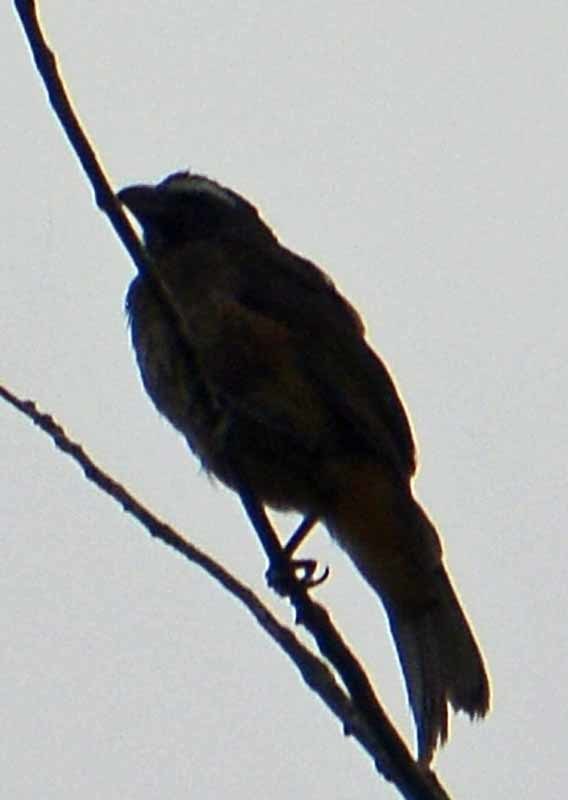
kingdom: Animalia
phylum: Chordata
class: Aves
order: Passeriformes
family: Thraupidae
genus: Saltator
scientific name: Saltator grandis
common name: Cinnamon-bellied saltator
